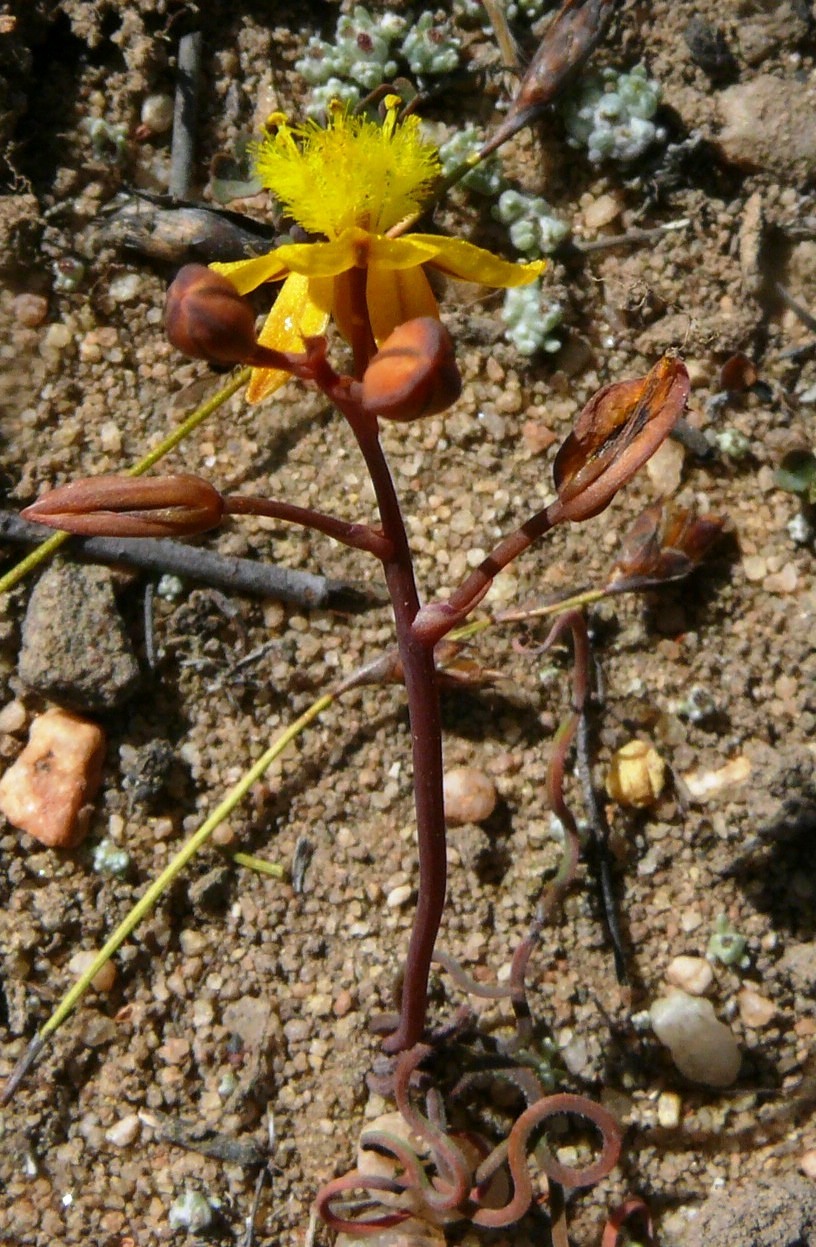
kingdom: Plantae
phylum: Tracheophyta
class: Liliopsida
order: Asparagales
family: Asphodelaceae
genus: Bulbine
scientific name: Bulbine torta
